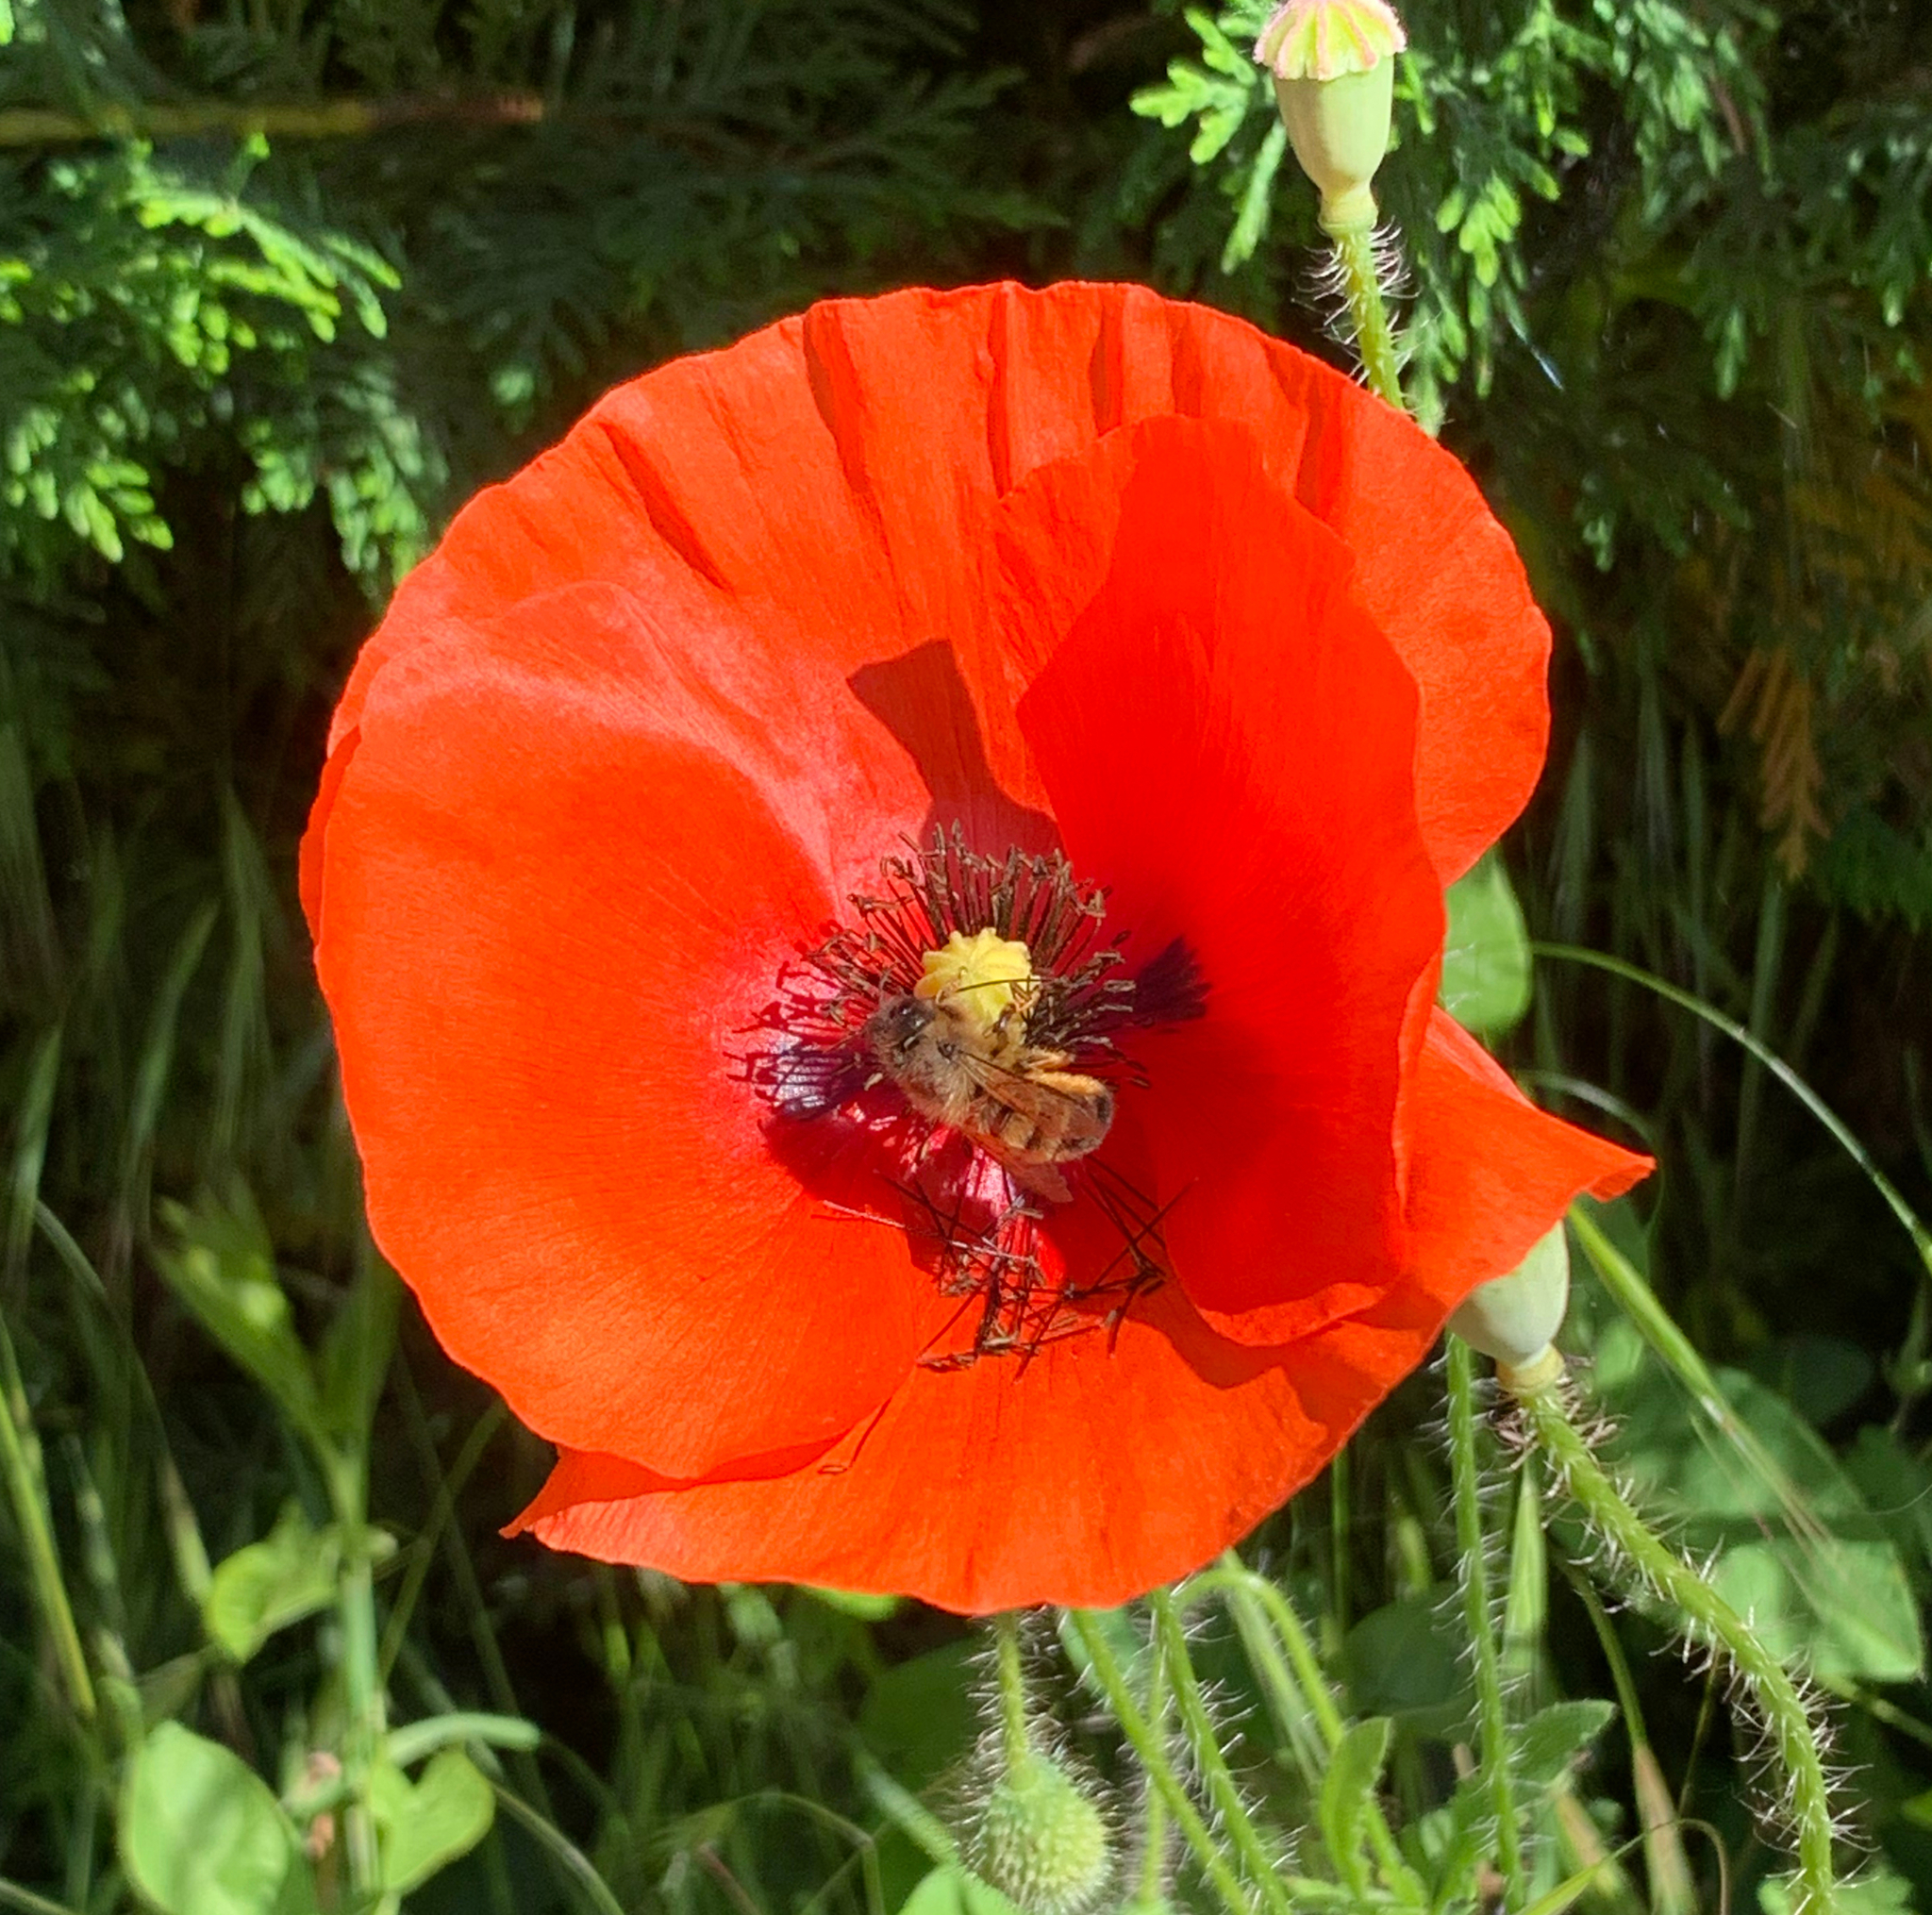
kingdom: Plantae
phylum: Tracheophyta
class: Magnoliopsida
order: Ranunculales
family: Papaveraceae
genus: Papaver
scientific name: Papaver rhoeas
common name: Corn poppy
